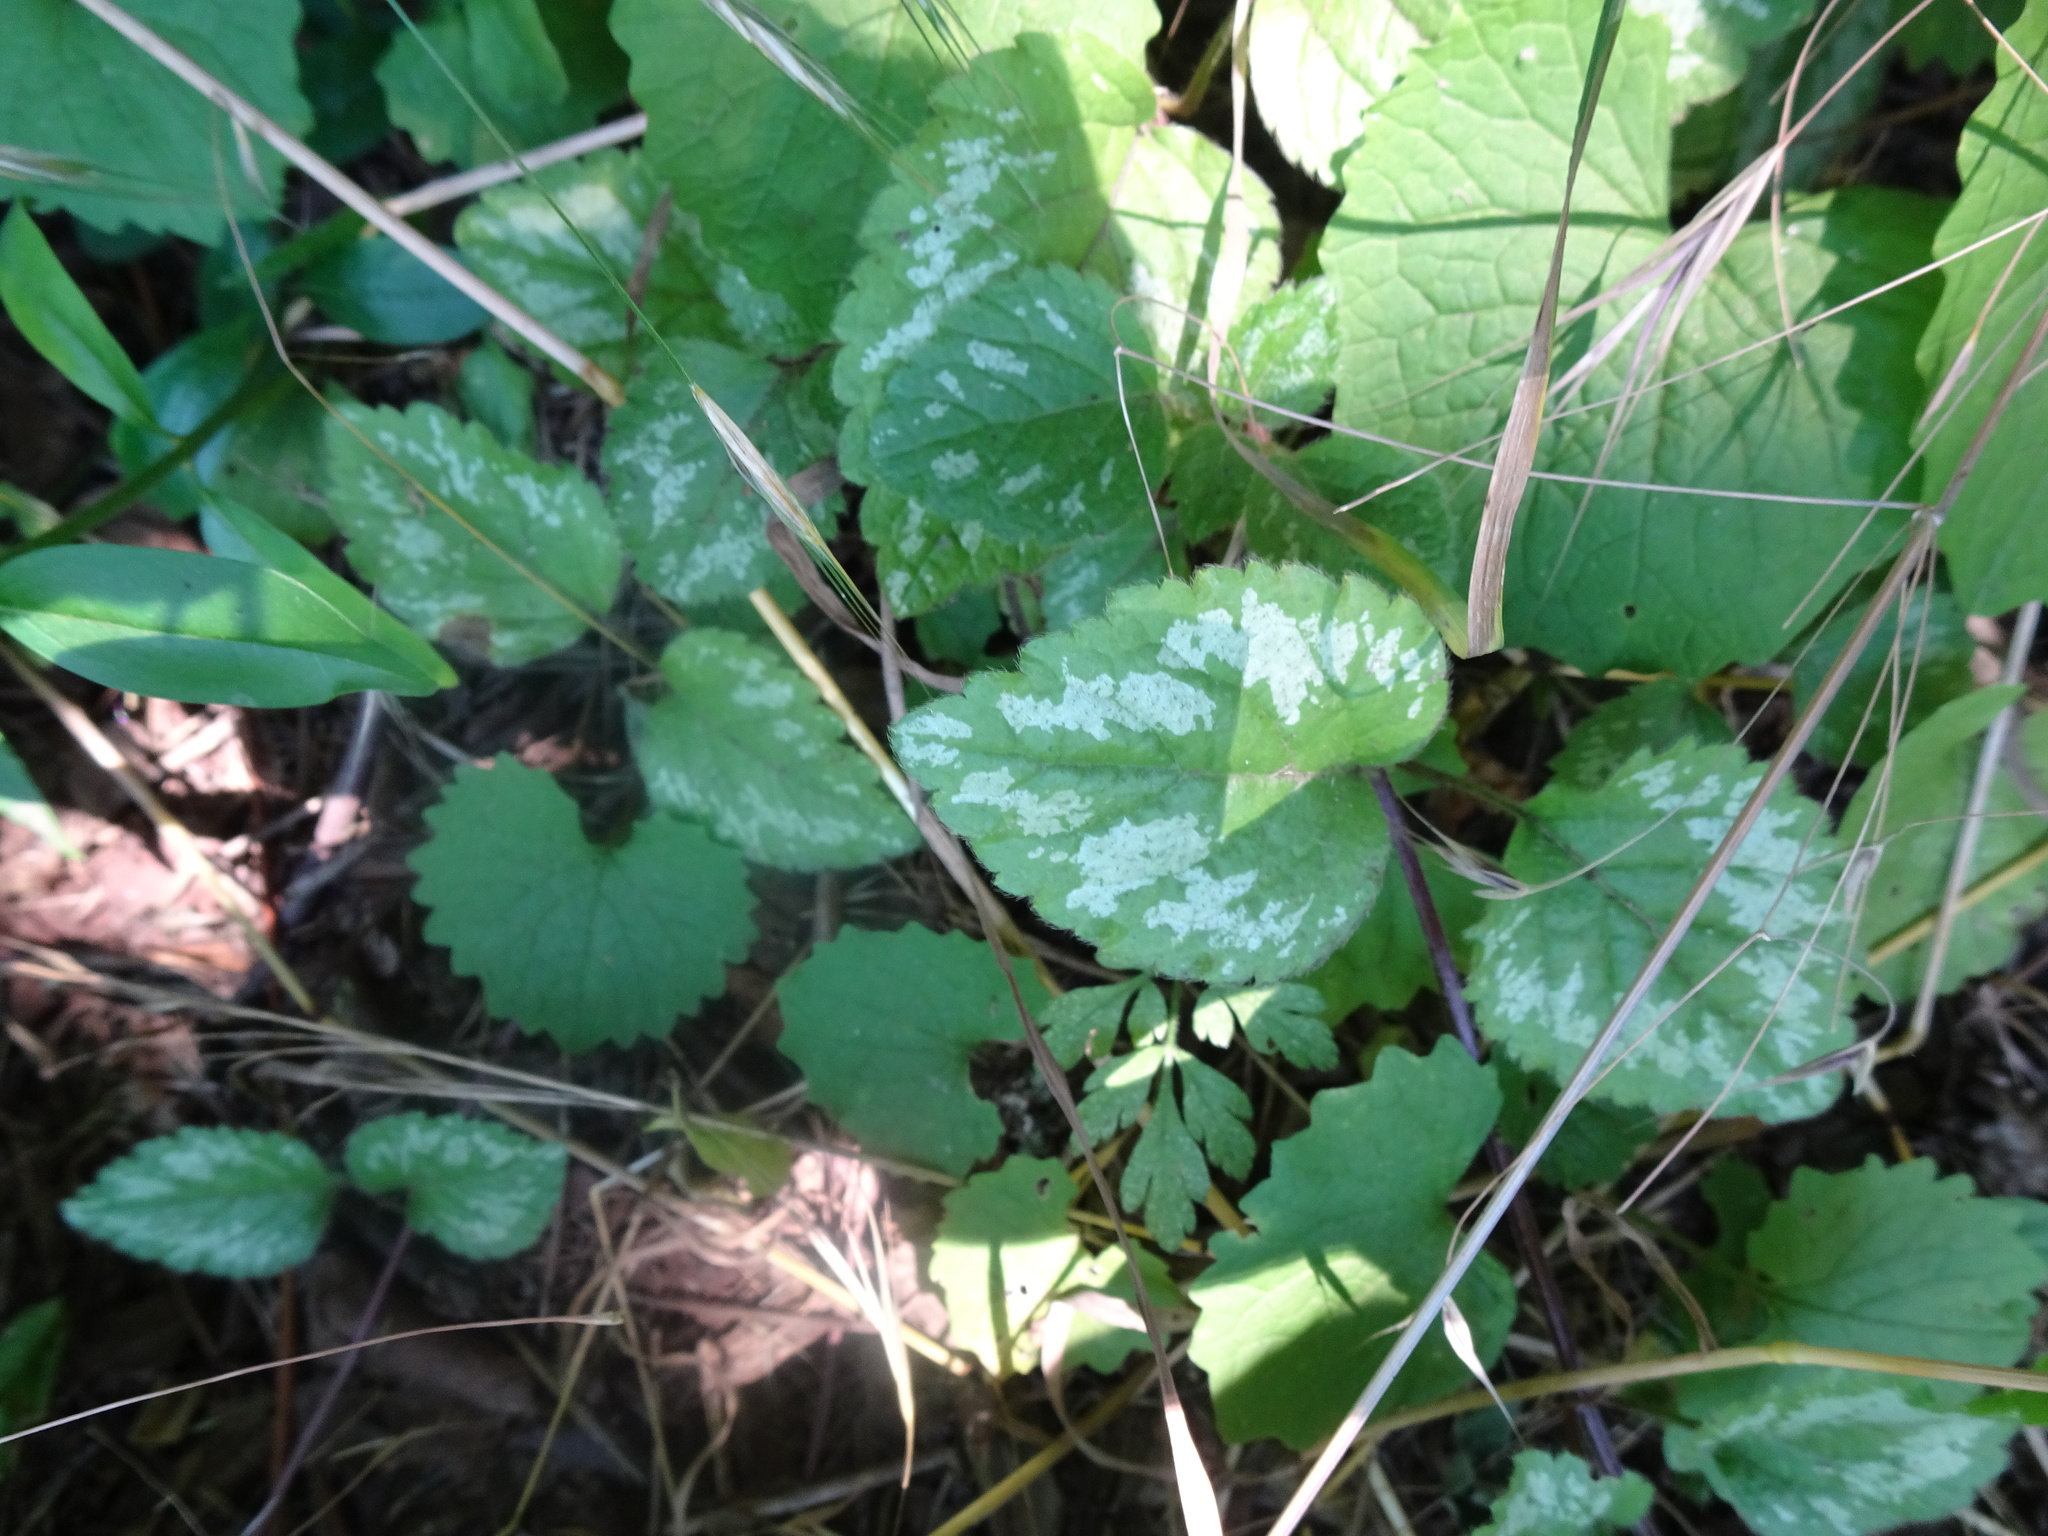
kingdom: Plantae
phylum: Tracheophyta
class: Magnoliopsida
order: Lamiales
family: Lamiaceae
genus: Lamium
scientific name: Lamium galeobdolon
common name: Yellow archangel
